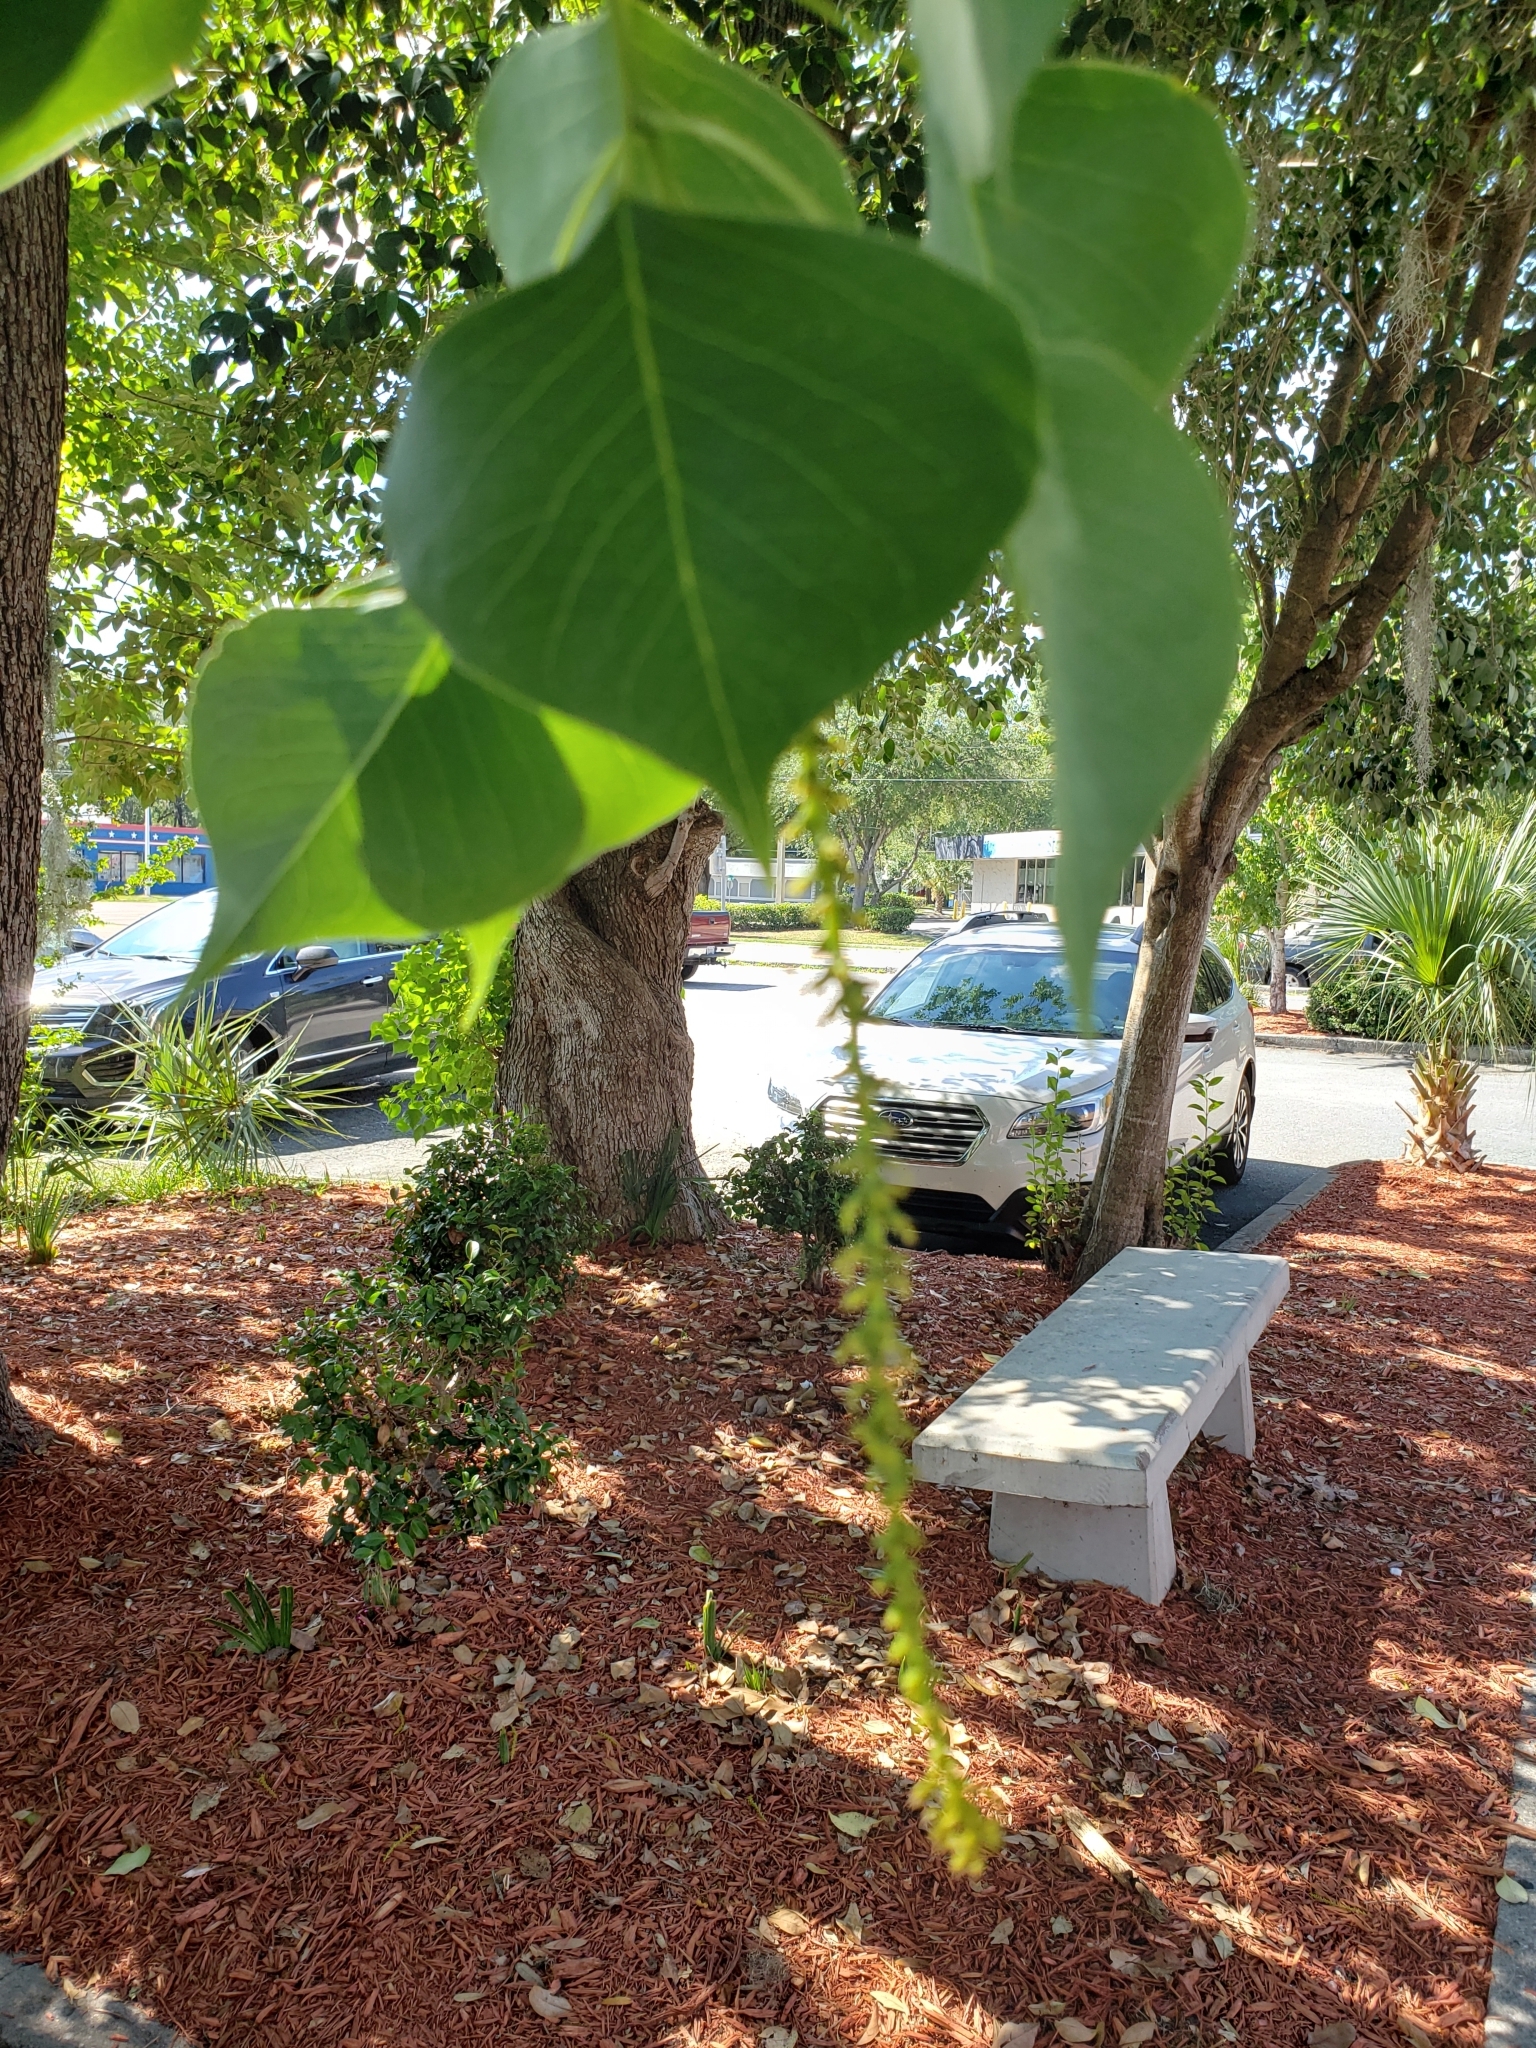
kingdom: Plantae
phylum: Tracheophyta
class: Magnoliopsida
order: Malpighiales
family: Euphorbiaceae
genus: Triadica
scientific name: Triadica sebifera
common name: Chinese tallow
